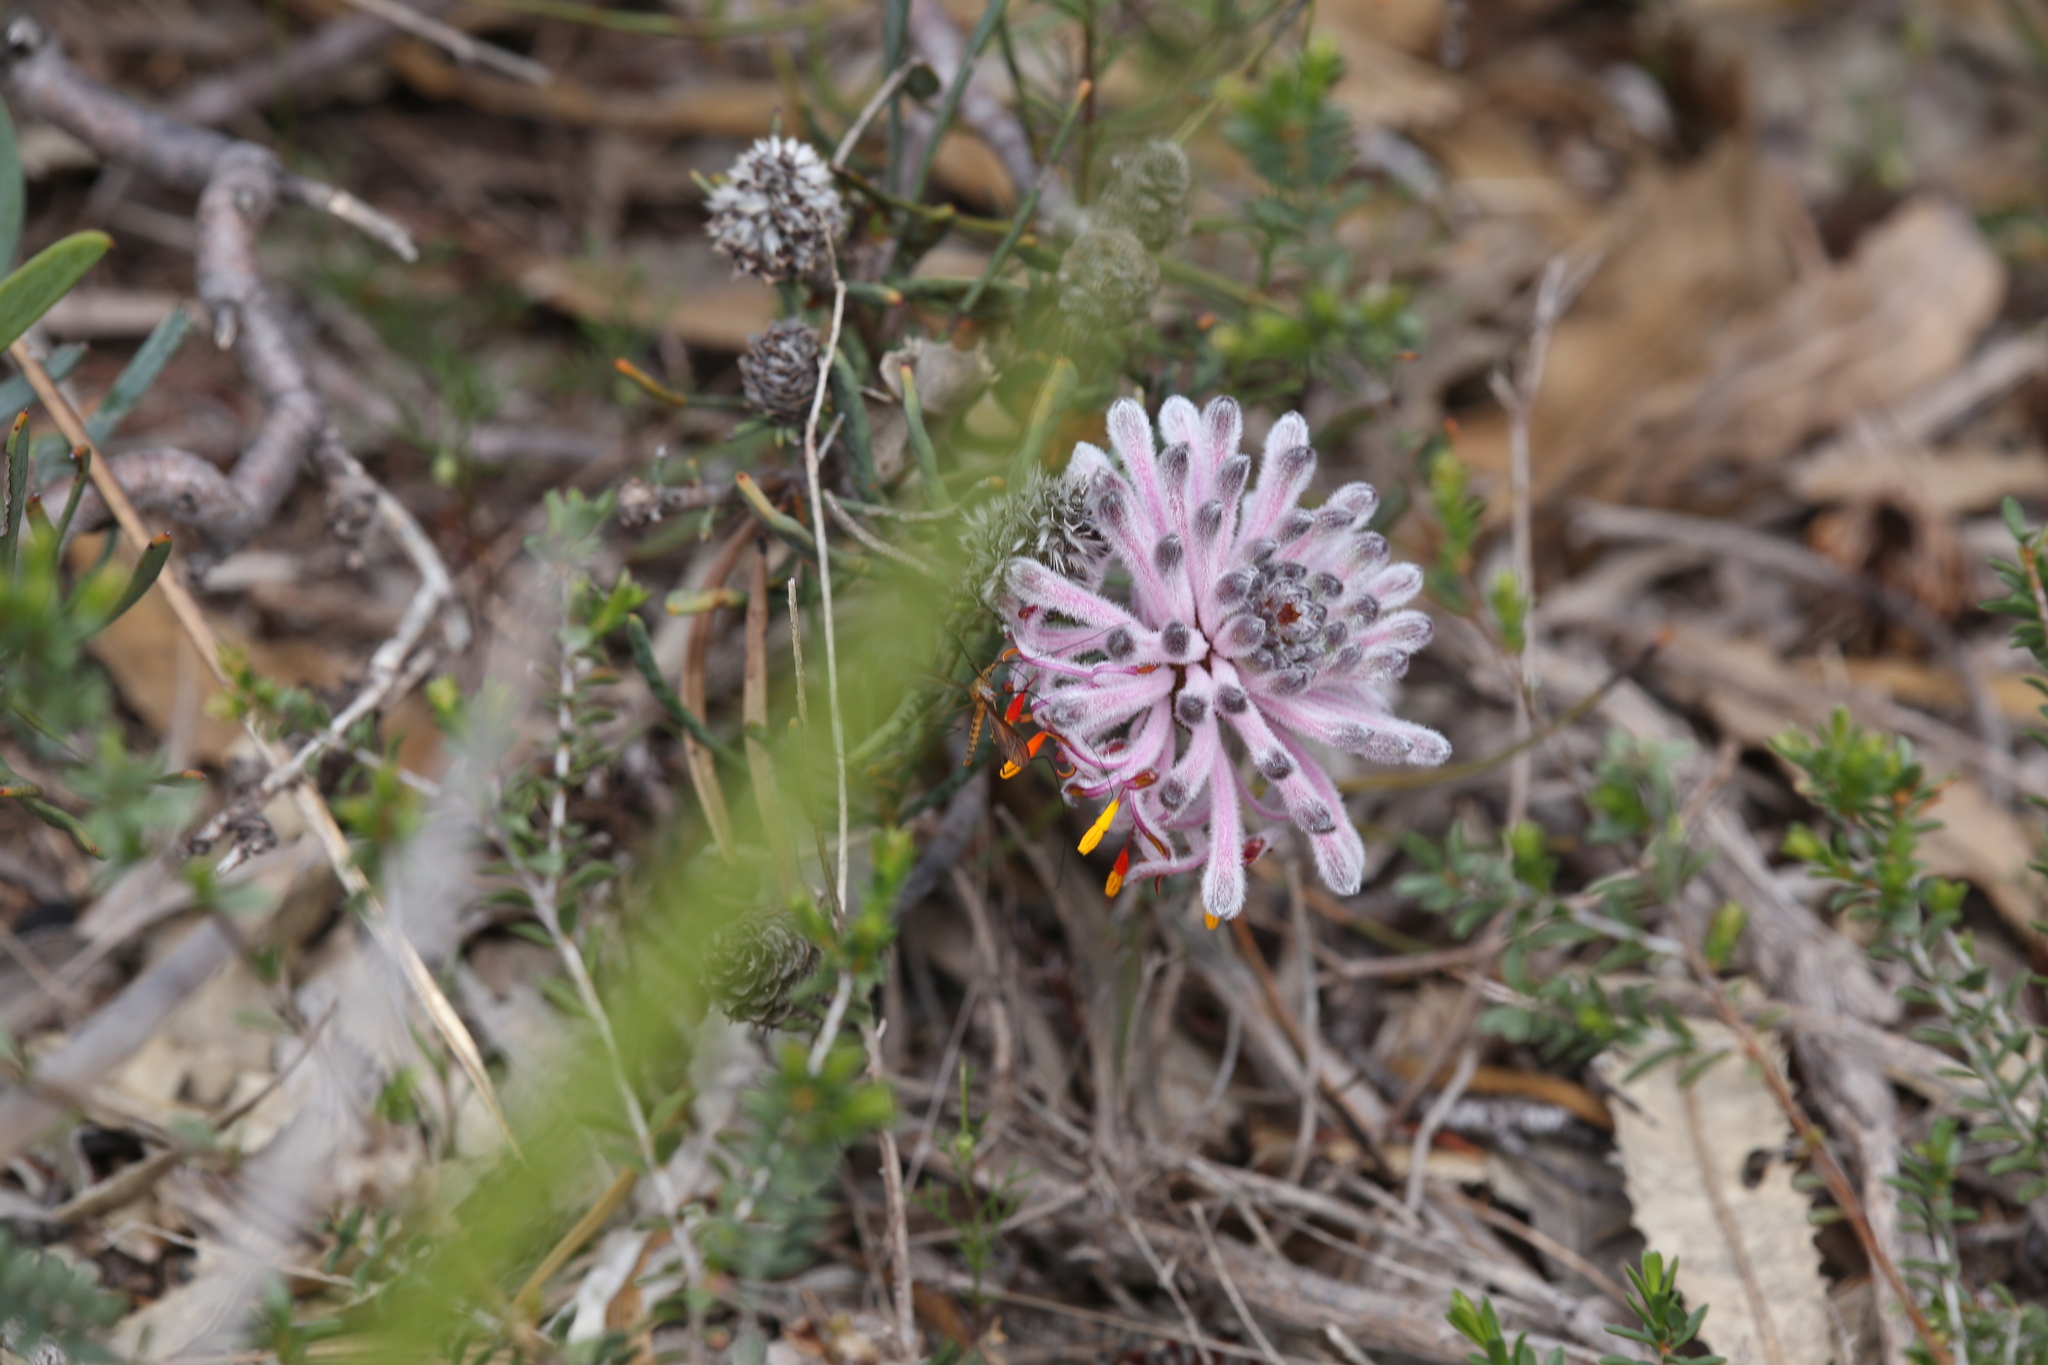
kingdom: Plantae
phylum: Tracheophyta
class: Magnoliopsida
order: Proteales
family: Proteaceae
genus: Petrophile
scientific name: Petrophile linearis
